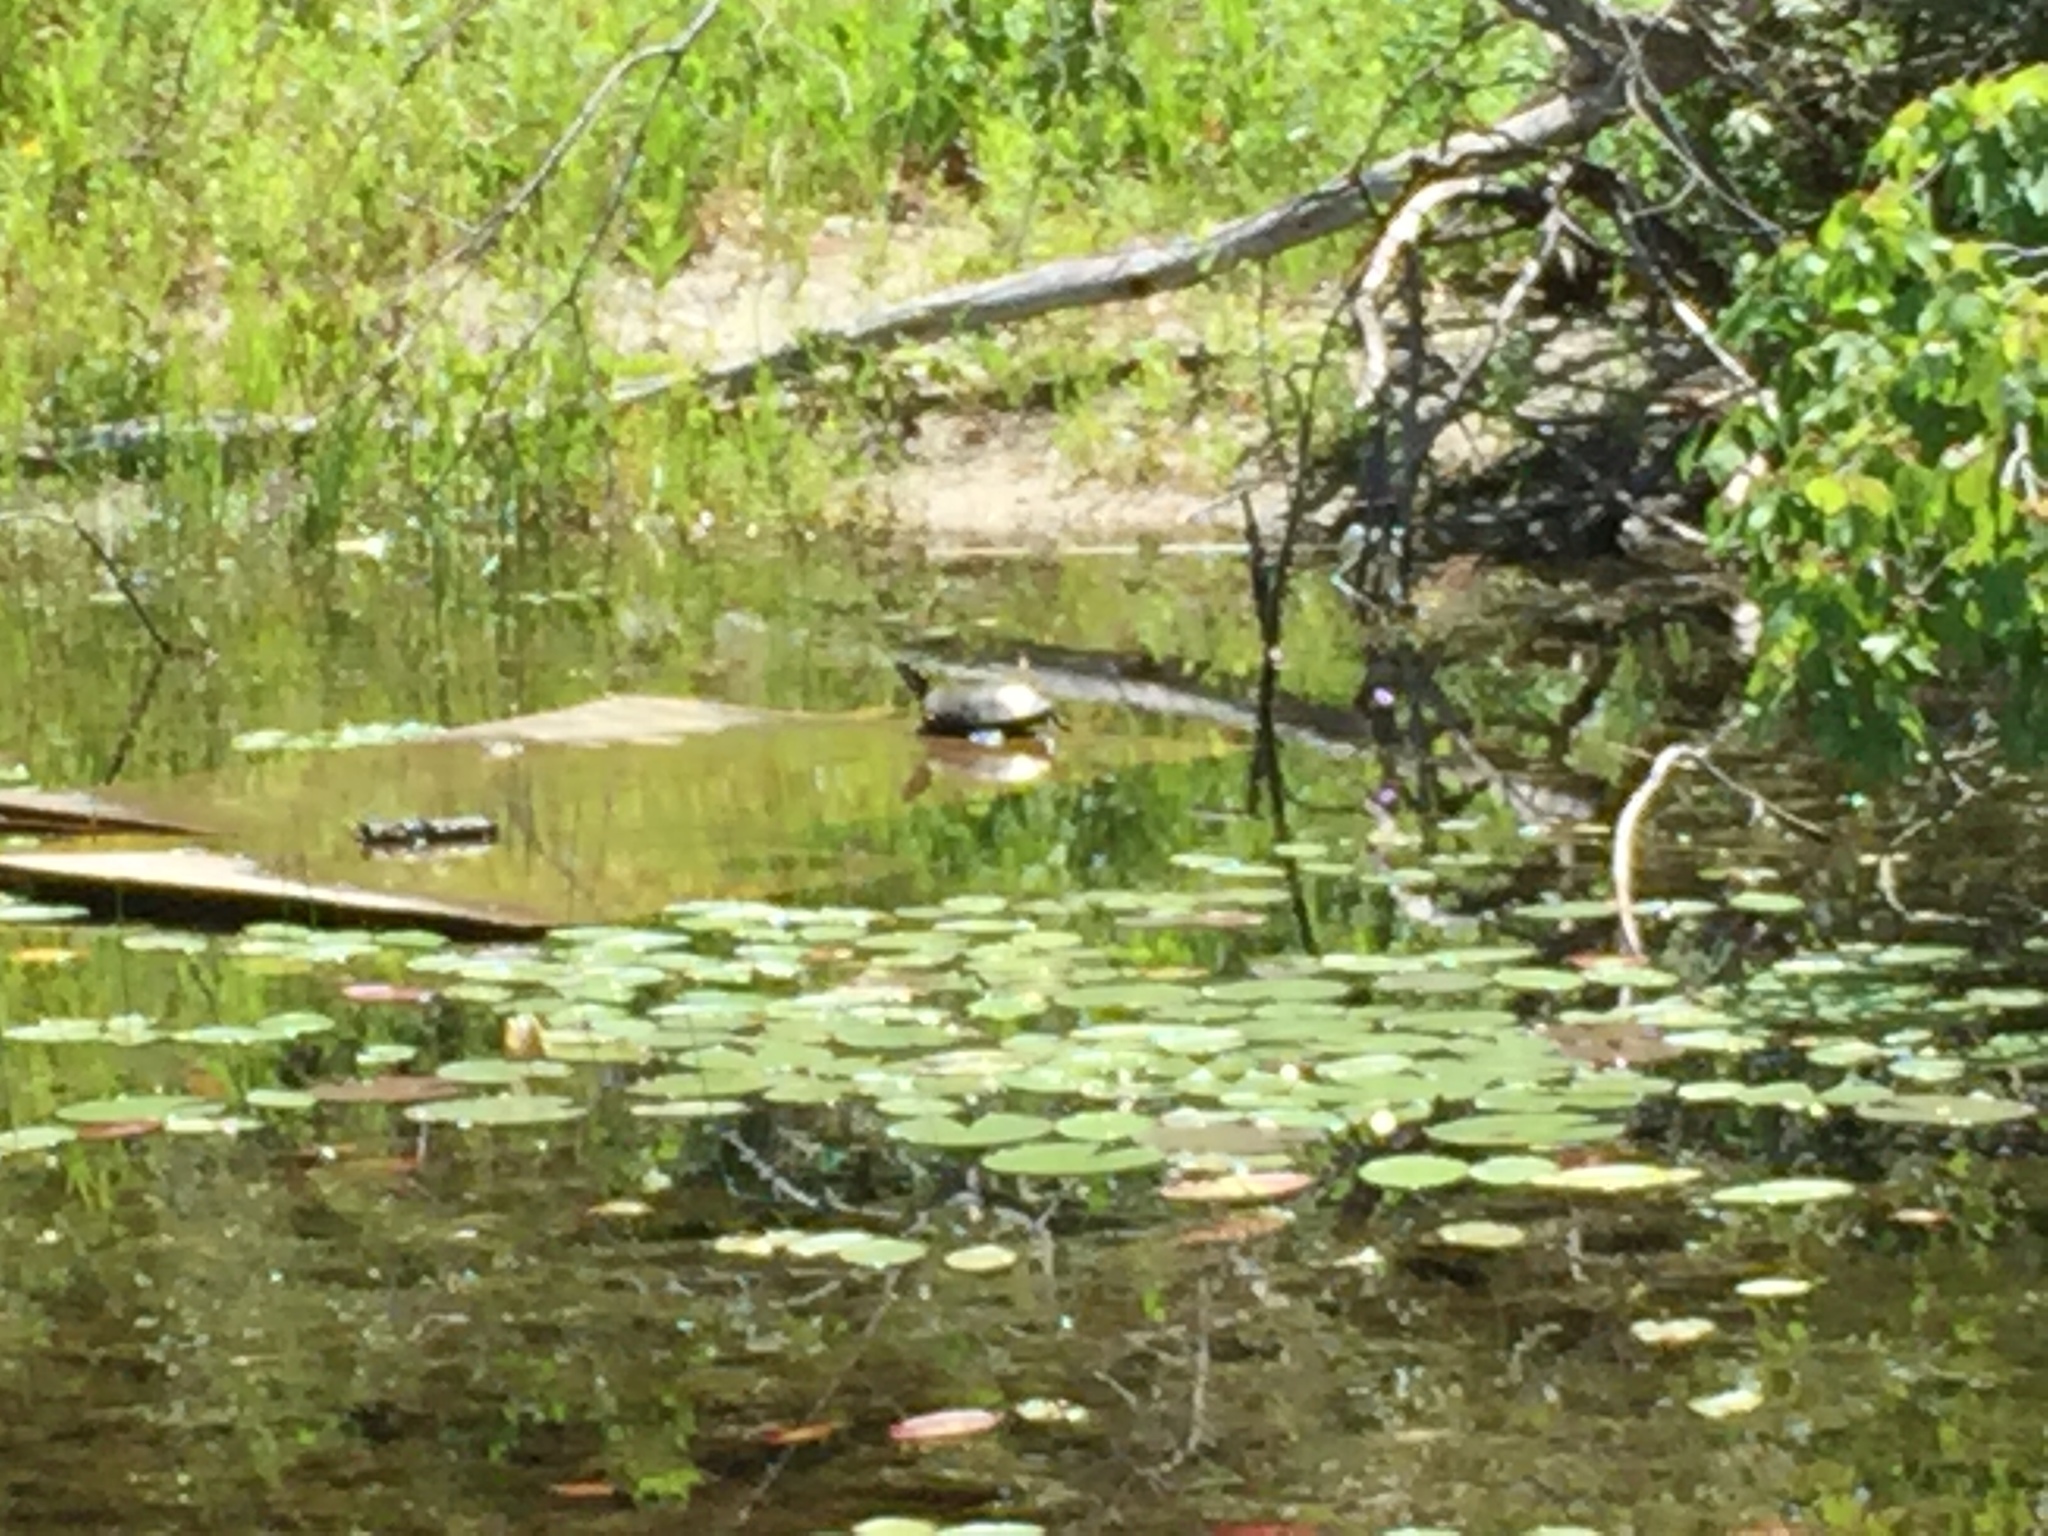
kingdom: Animalia
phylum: Chordata
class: Testudines
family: Emydidae
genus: Chrysemys
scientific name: Chrysemys picta
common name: Painted turtle
